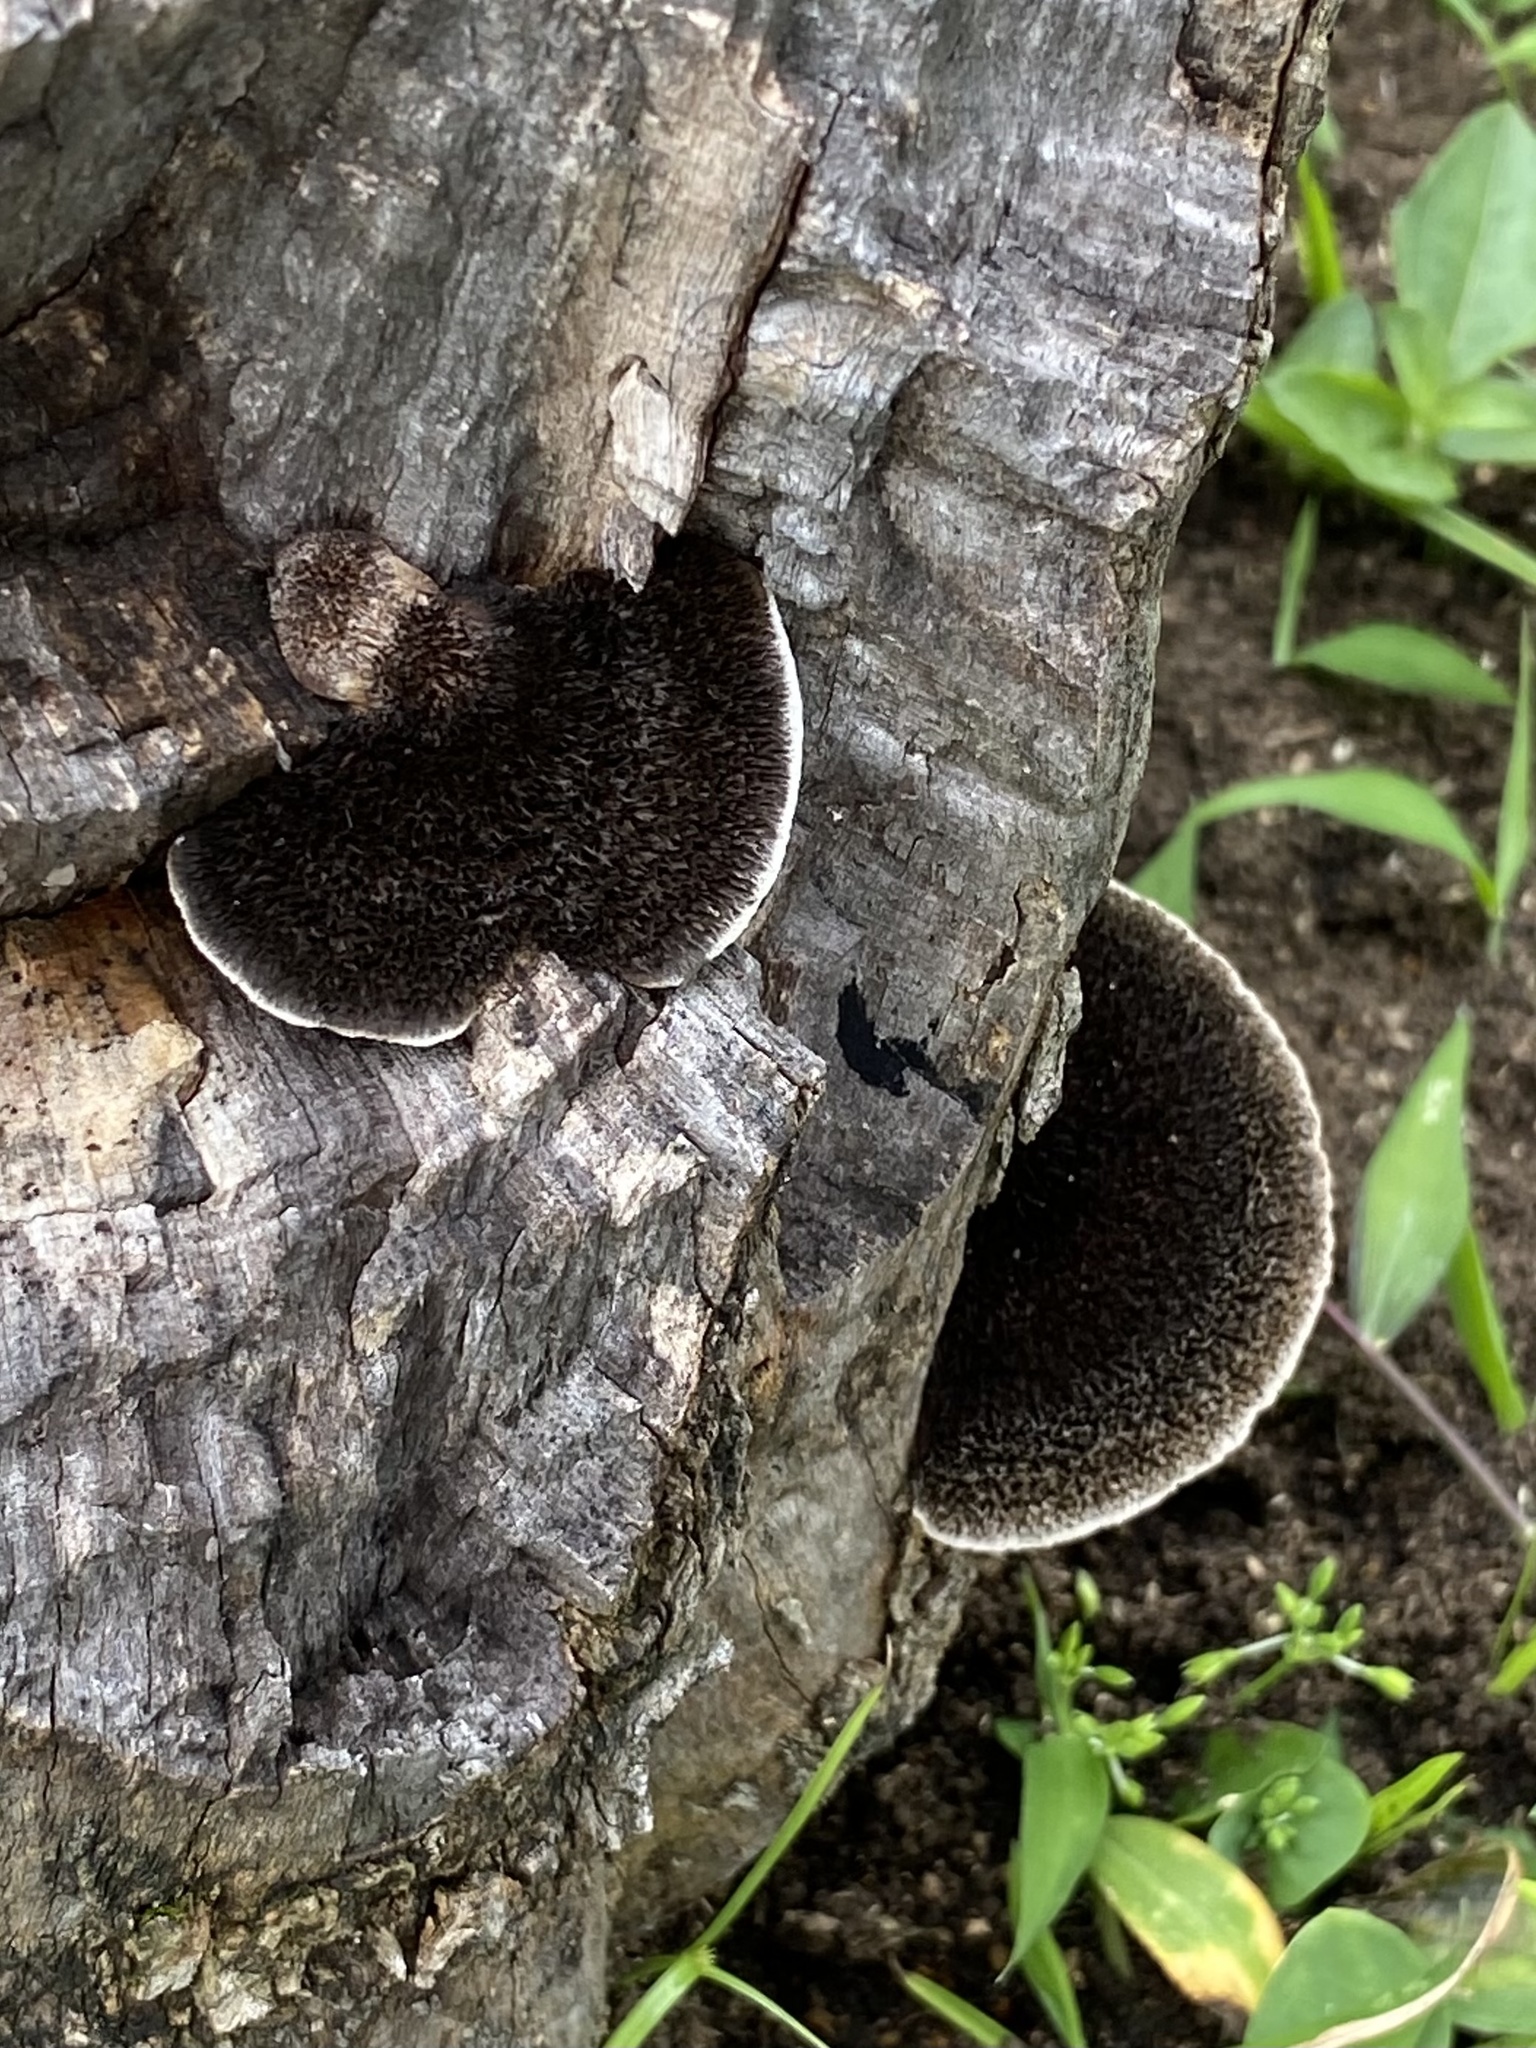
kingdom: Fungi
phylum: Basidiomycota
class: Agaricomycetes
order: Polyporales
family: Cerrenaceae
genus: Cerrena
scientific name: Cerrena hydnoides
